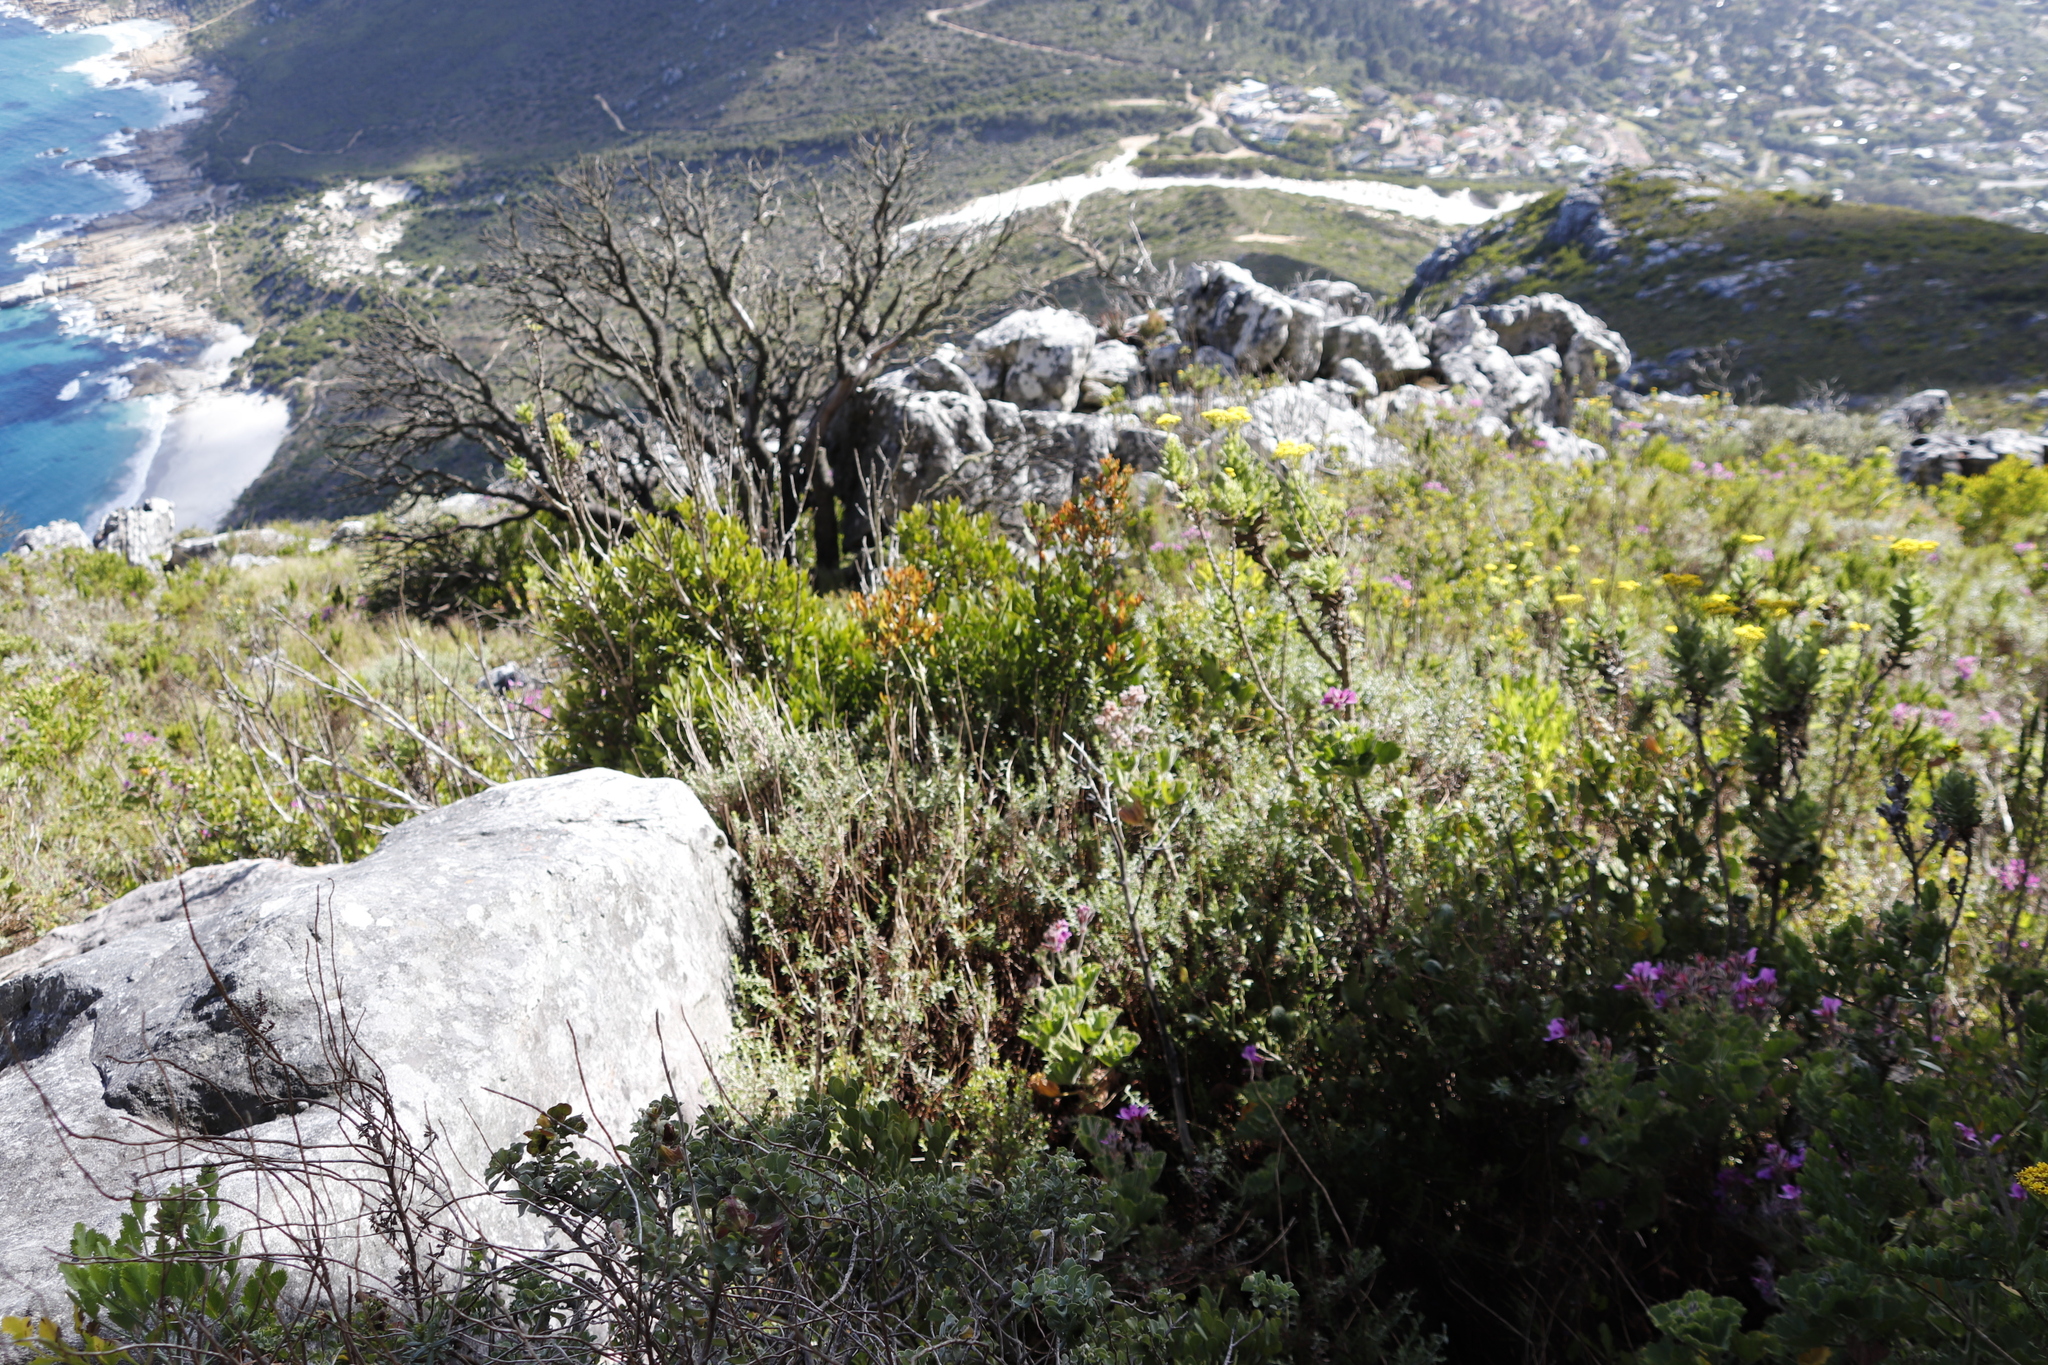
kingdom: Plantae
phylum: Tracheophyta
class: Magnoliopsida
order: Celastrales
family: Celastraceae
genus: Elaeodendron
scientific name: Elaeodendron schinoides
